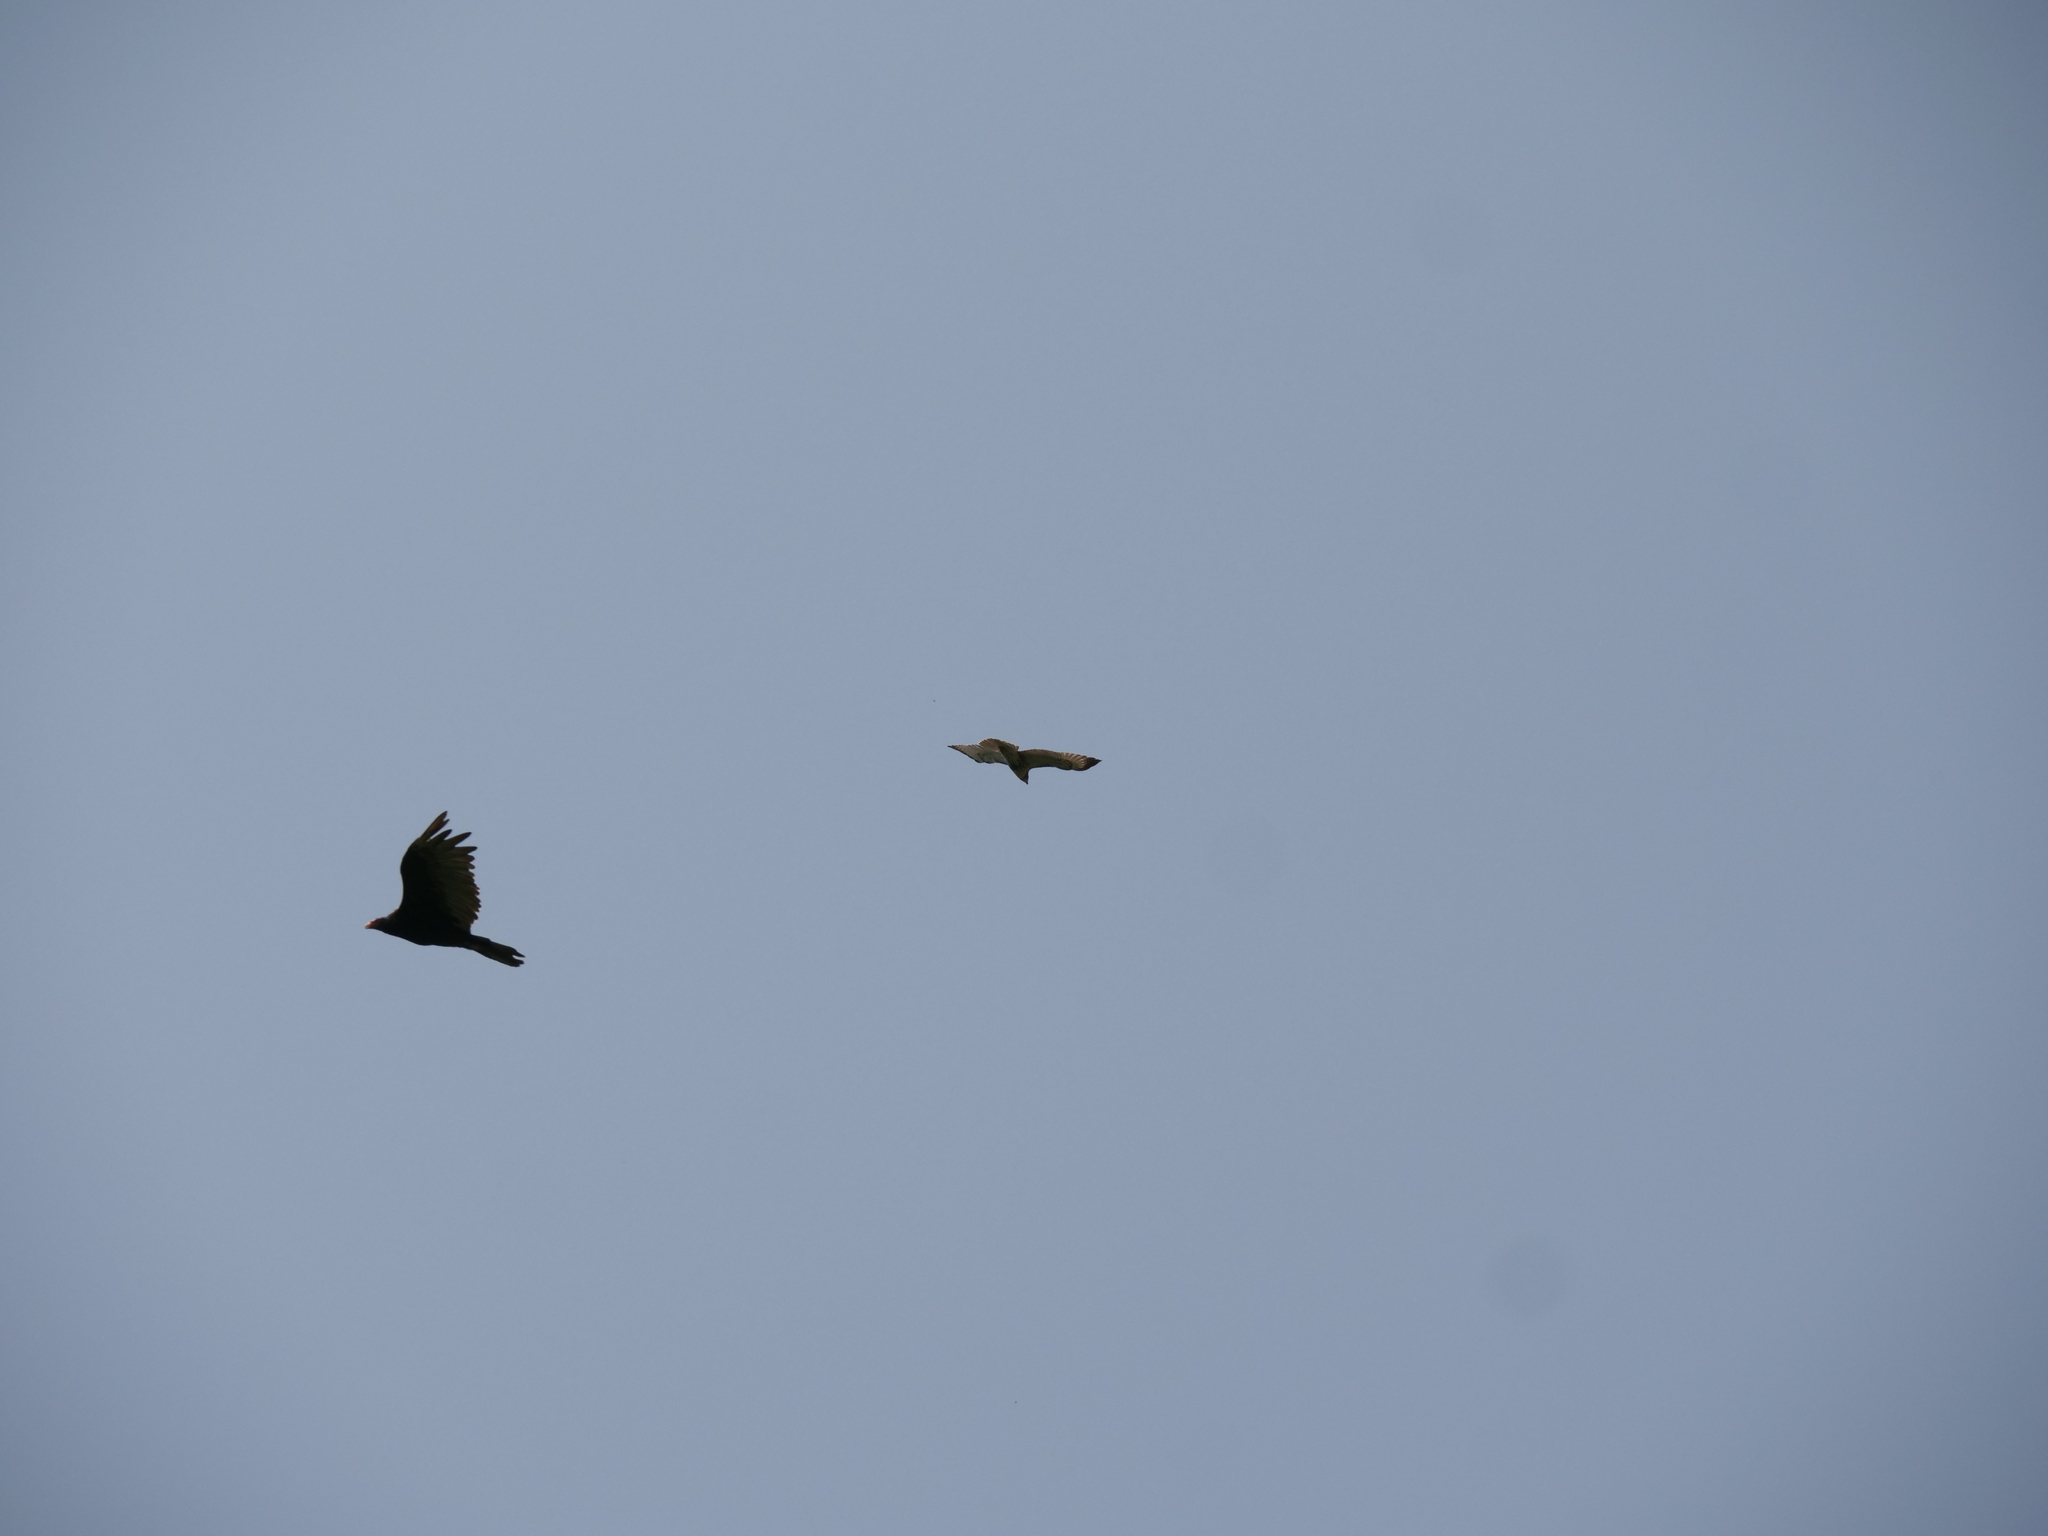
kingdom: Animalia
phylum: Chordata
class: Aves
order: Accipitriformes
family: Accipitridae
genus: Buteo
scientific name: Buteo jamaicensis
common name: Red-tailed hawk
